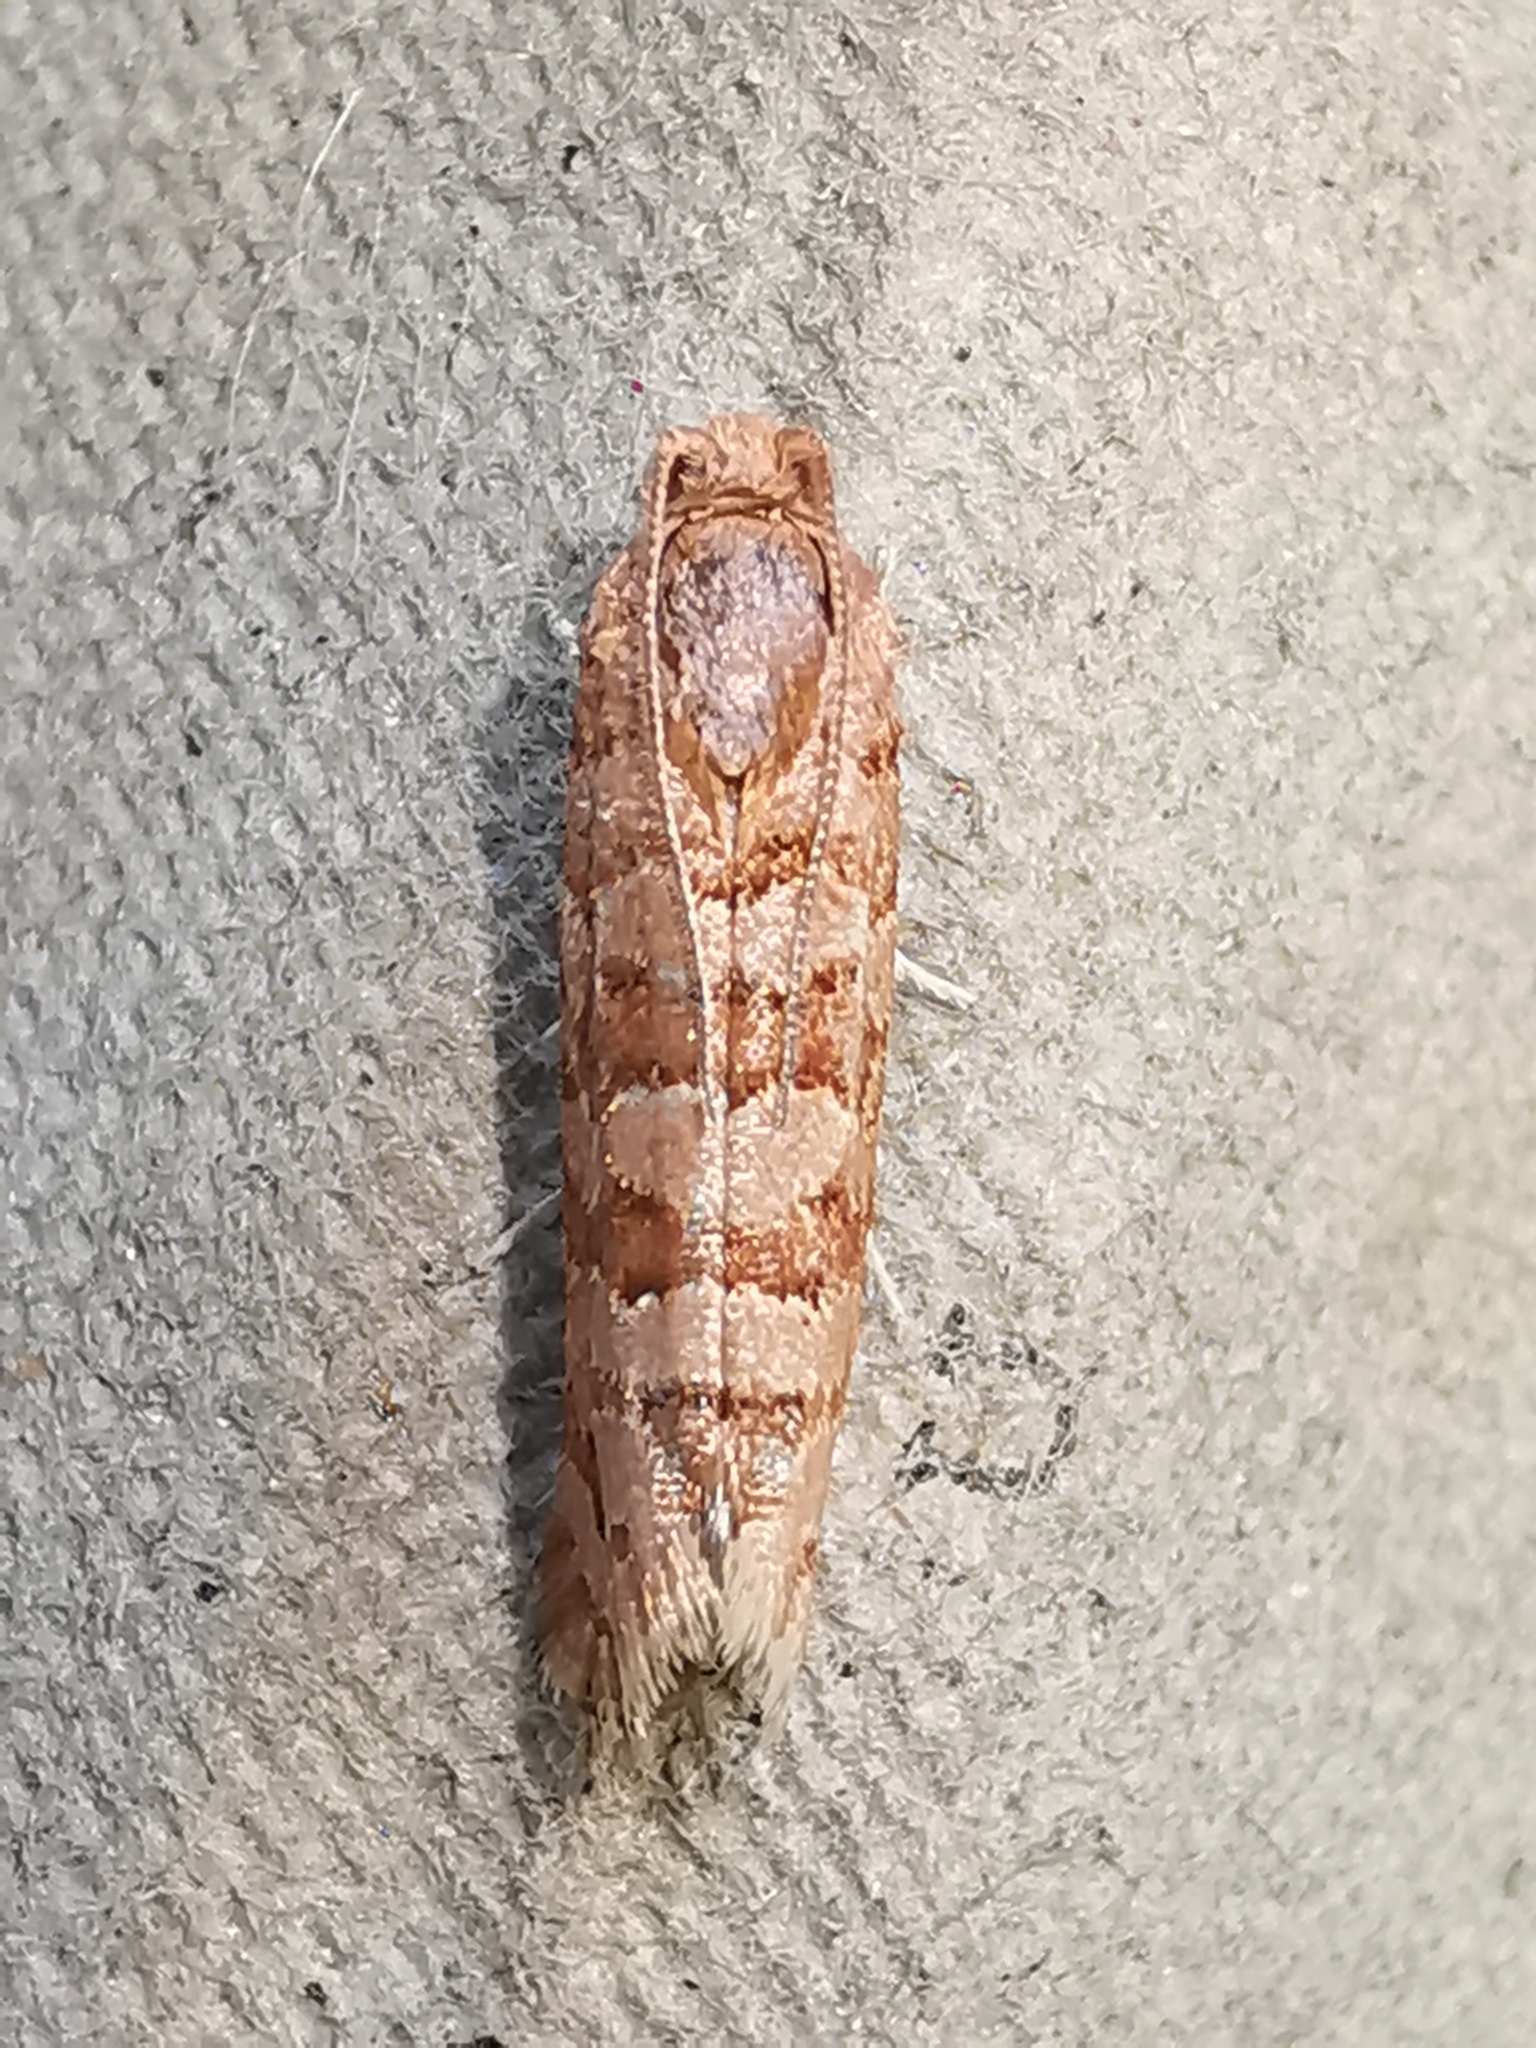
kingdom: Animalia
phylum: Arthropoda
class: Insecta
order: Lepidoptera
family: Tortricidae
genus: Lozotaeniodes
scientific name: Lozotaeniodes formosana
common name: Orange pine twist
